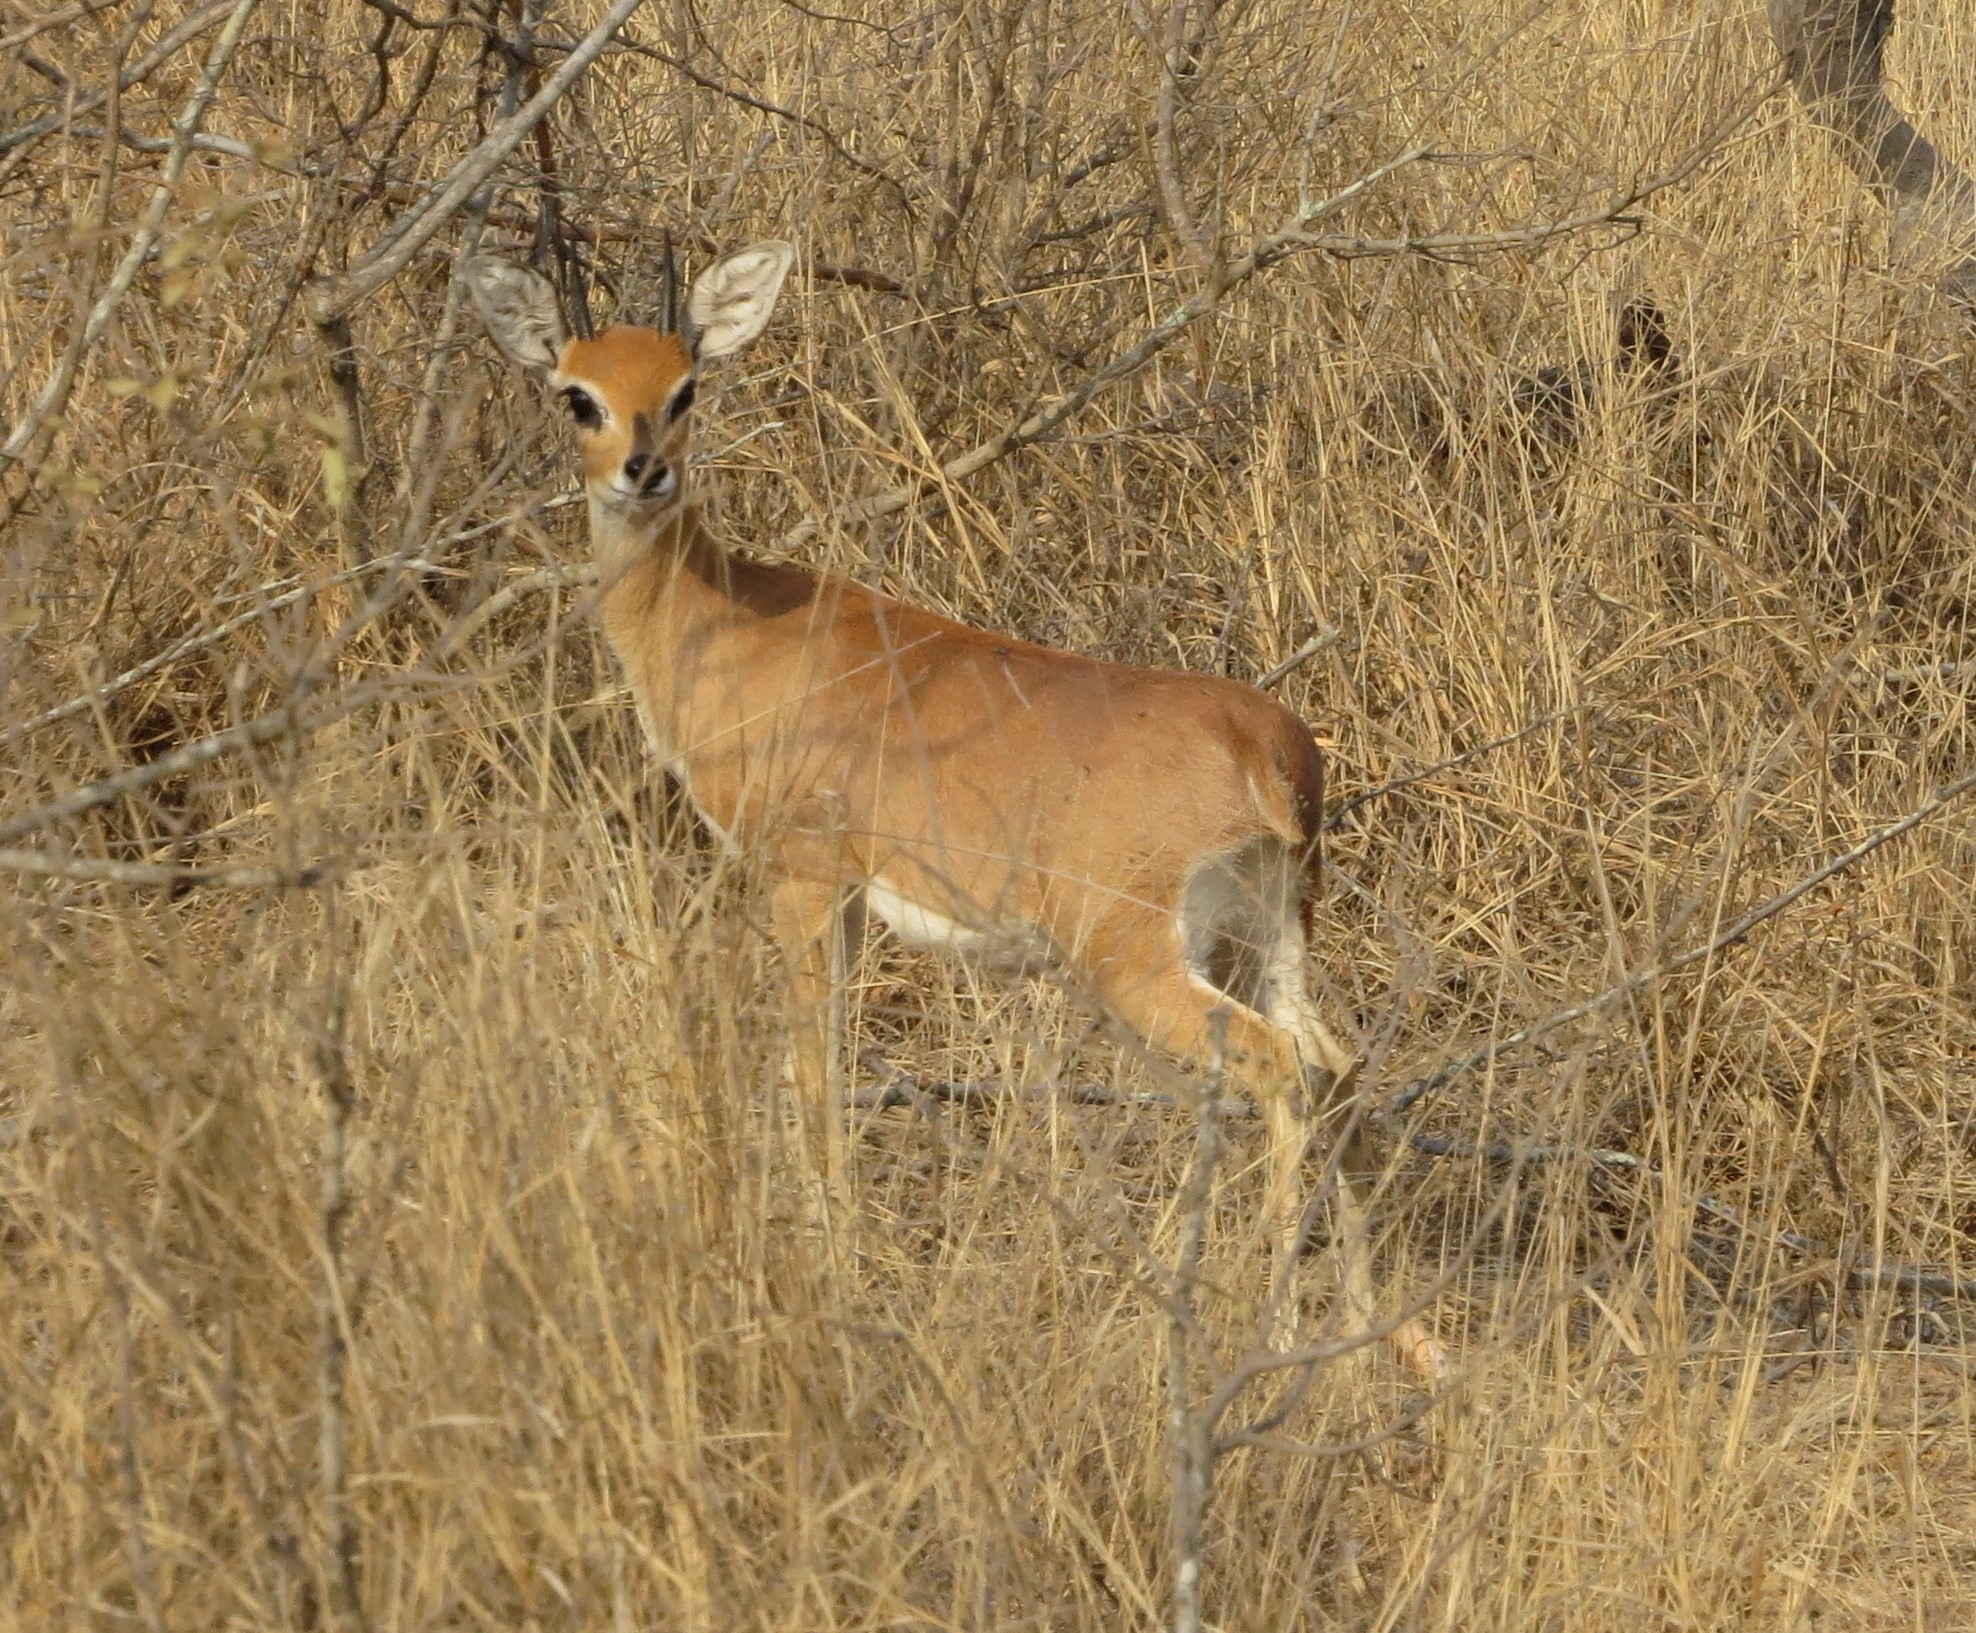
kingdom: Animalia
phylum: Chordata
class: Mammalia
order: Artiodactyla
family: Bovidae
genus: Raphicerus
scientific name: Raphicerus campestris
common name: Steenbok
